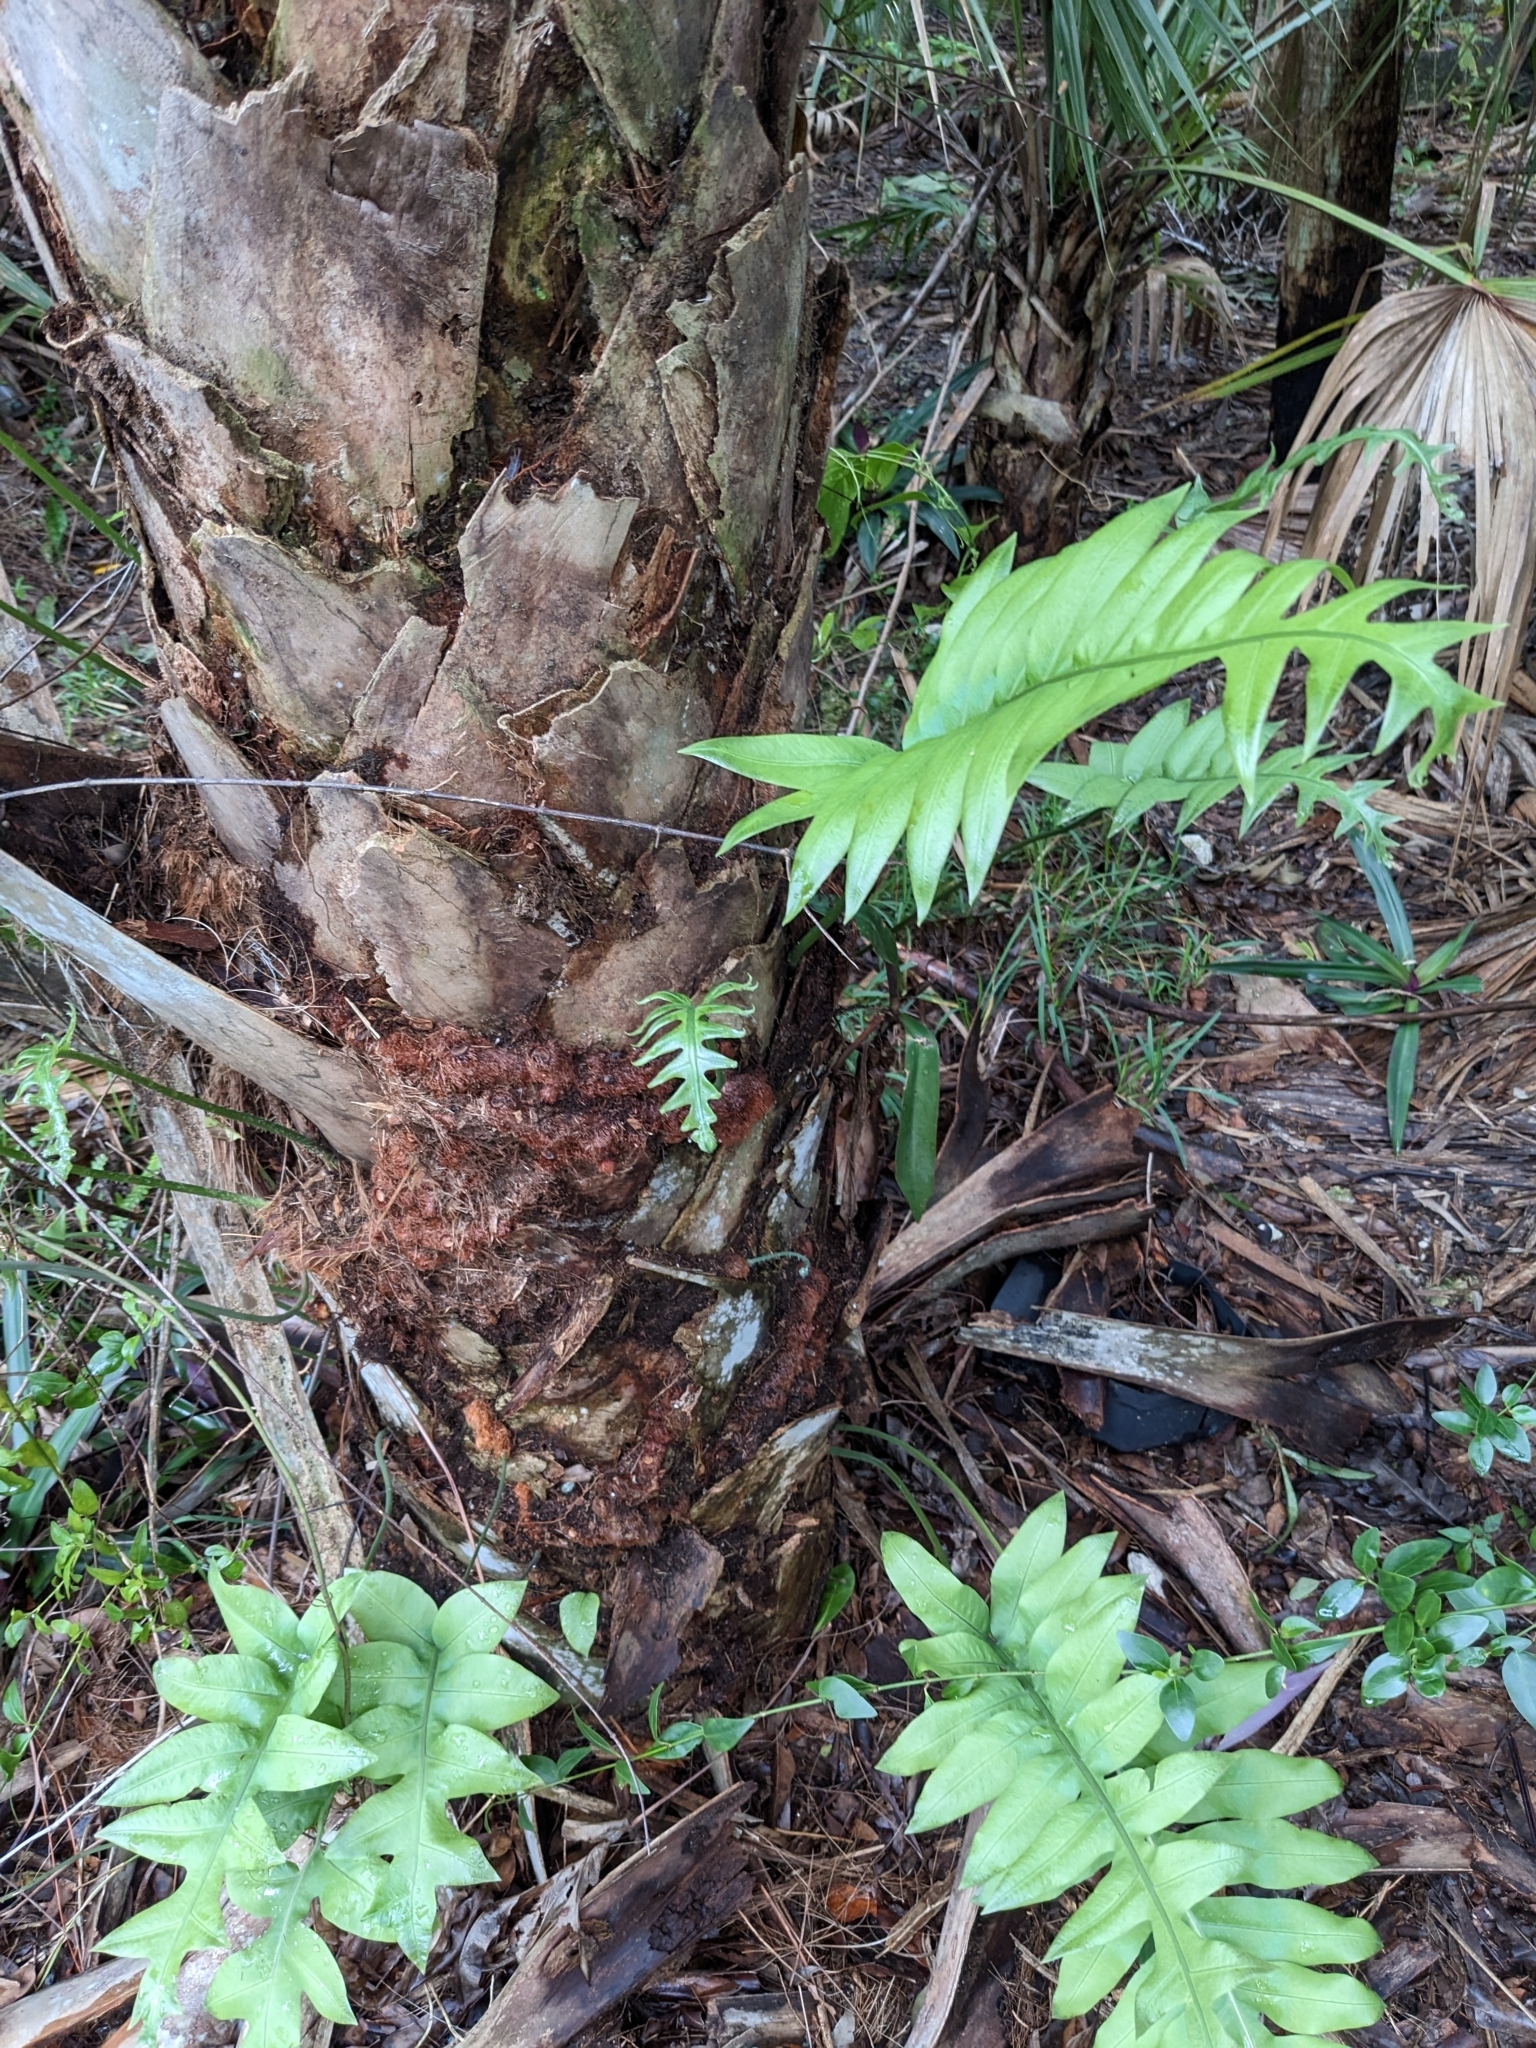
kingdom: Plantae
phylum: Tracheophyta
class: Polypodiopsida
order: Polypodiales
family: Polypodiaceae
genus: Phlebodium
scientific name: Phlebodium aureum
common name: Gold-foot fern
